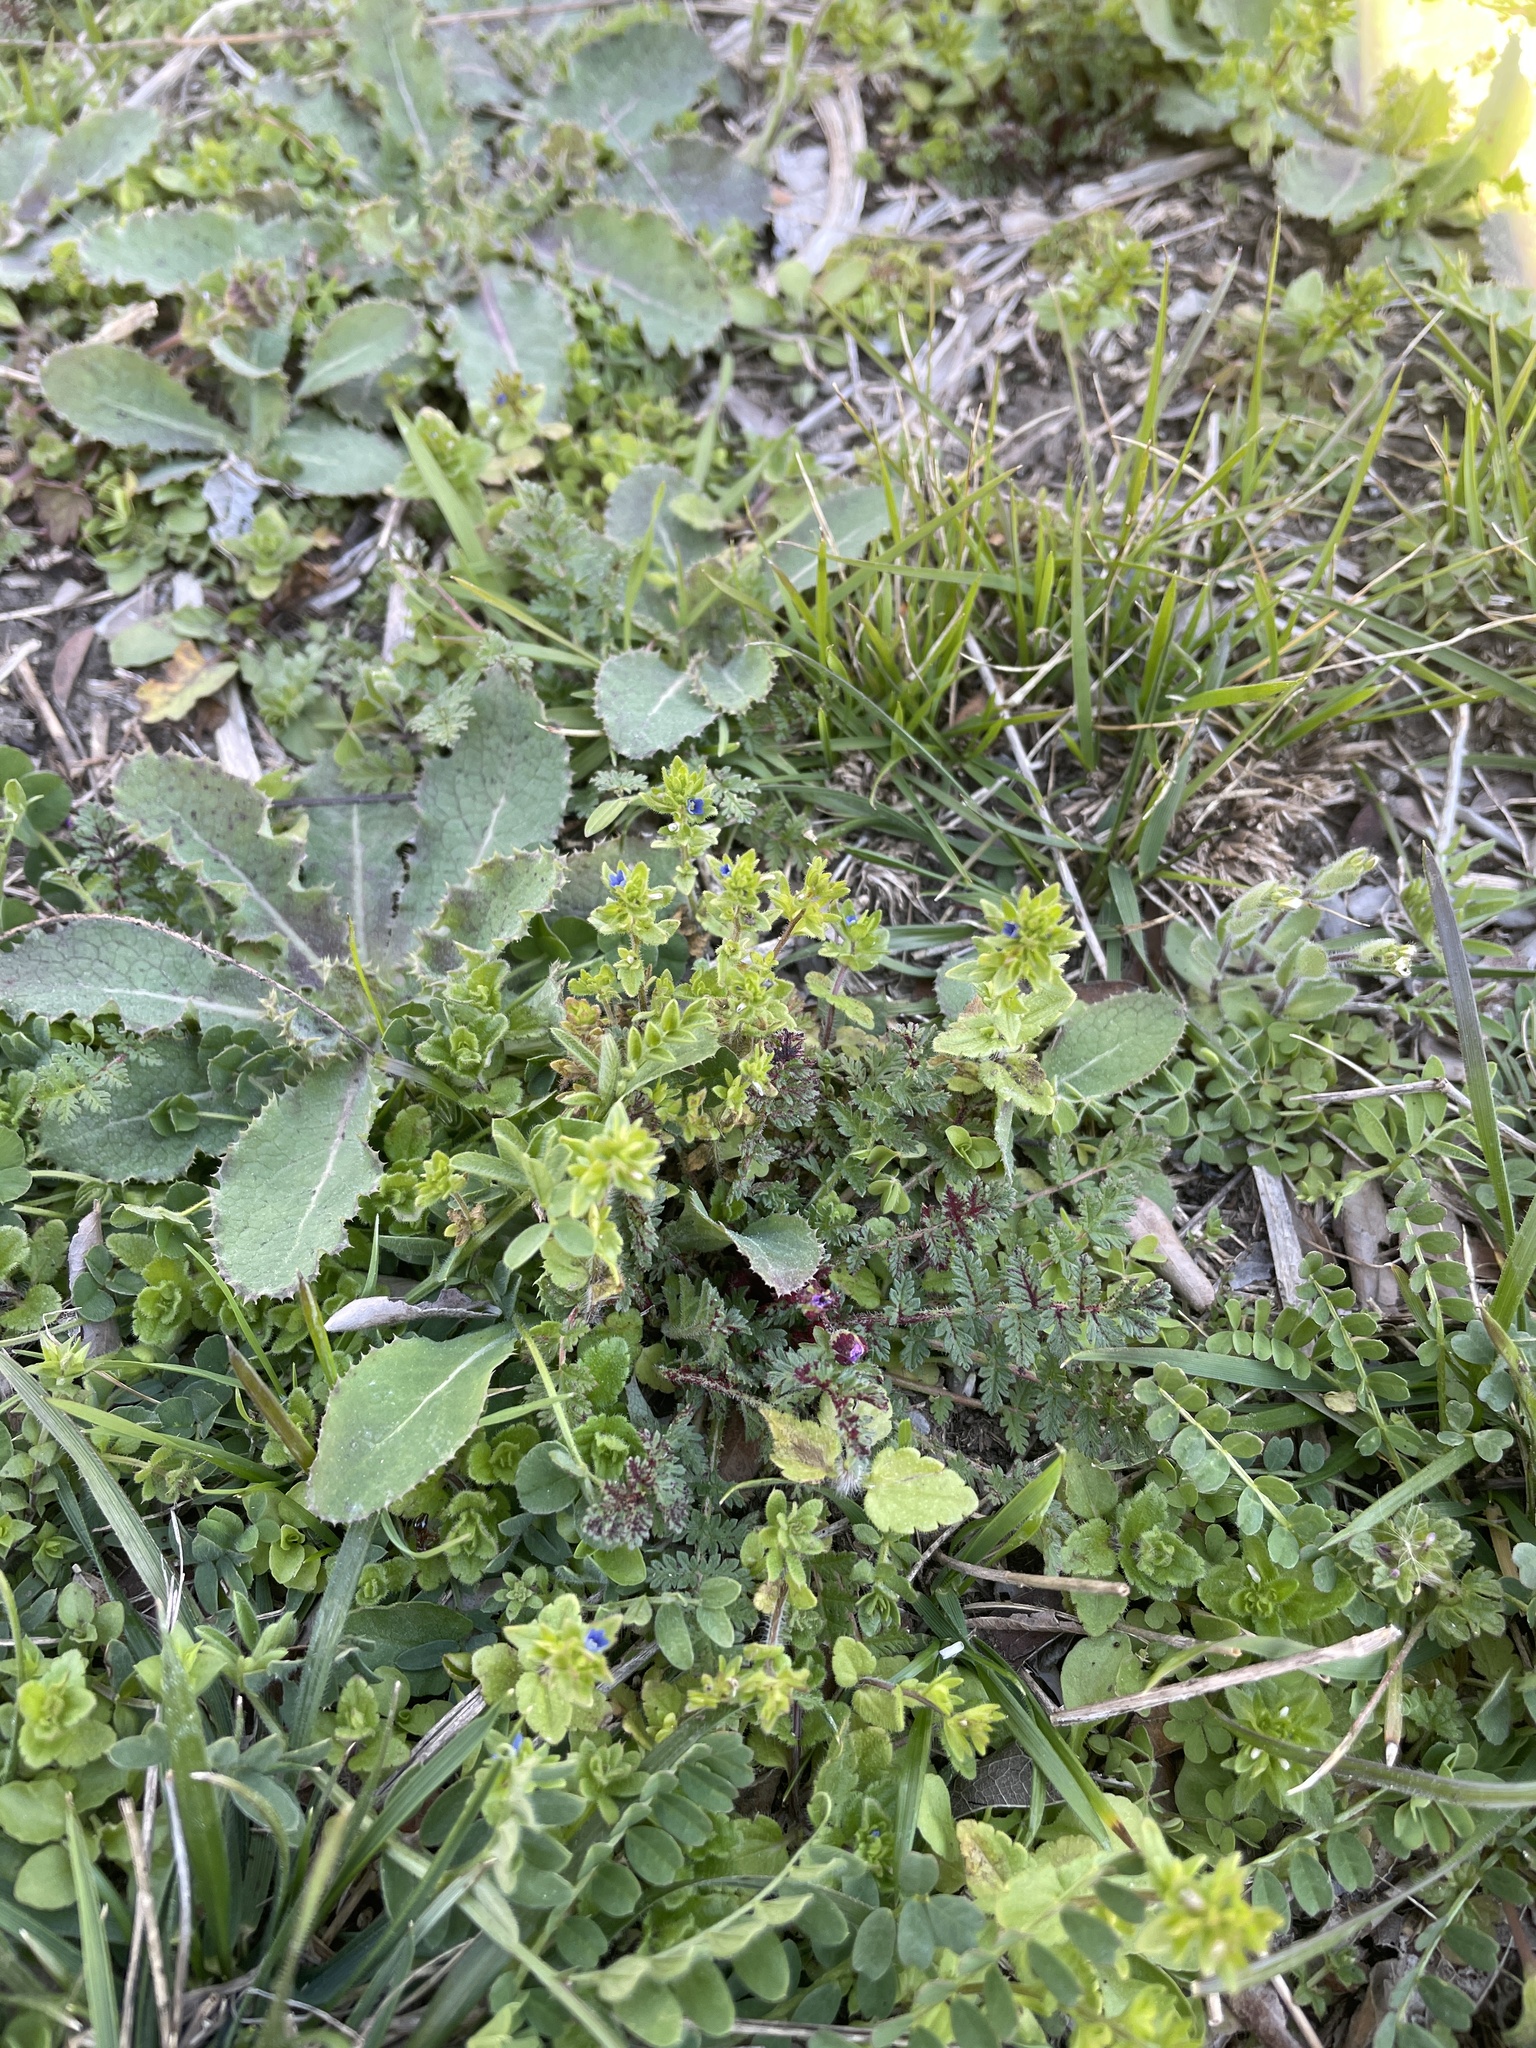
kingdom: Plantae
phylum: Tracheophyta
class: Magnoliopsida
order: Lamiales
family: Plantaginaceae
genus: Veronica
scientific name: Veronica arvensis
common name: Corn speedwell
